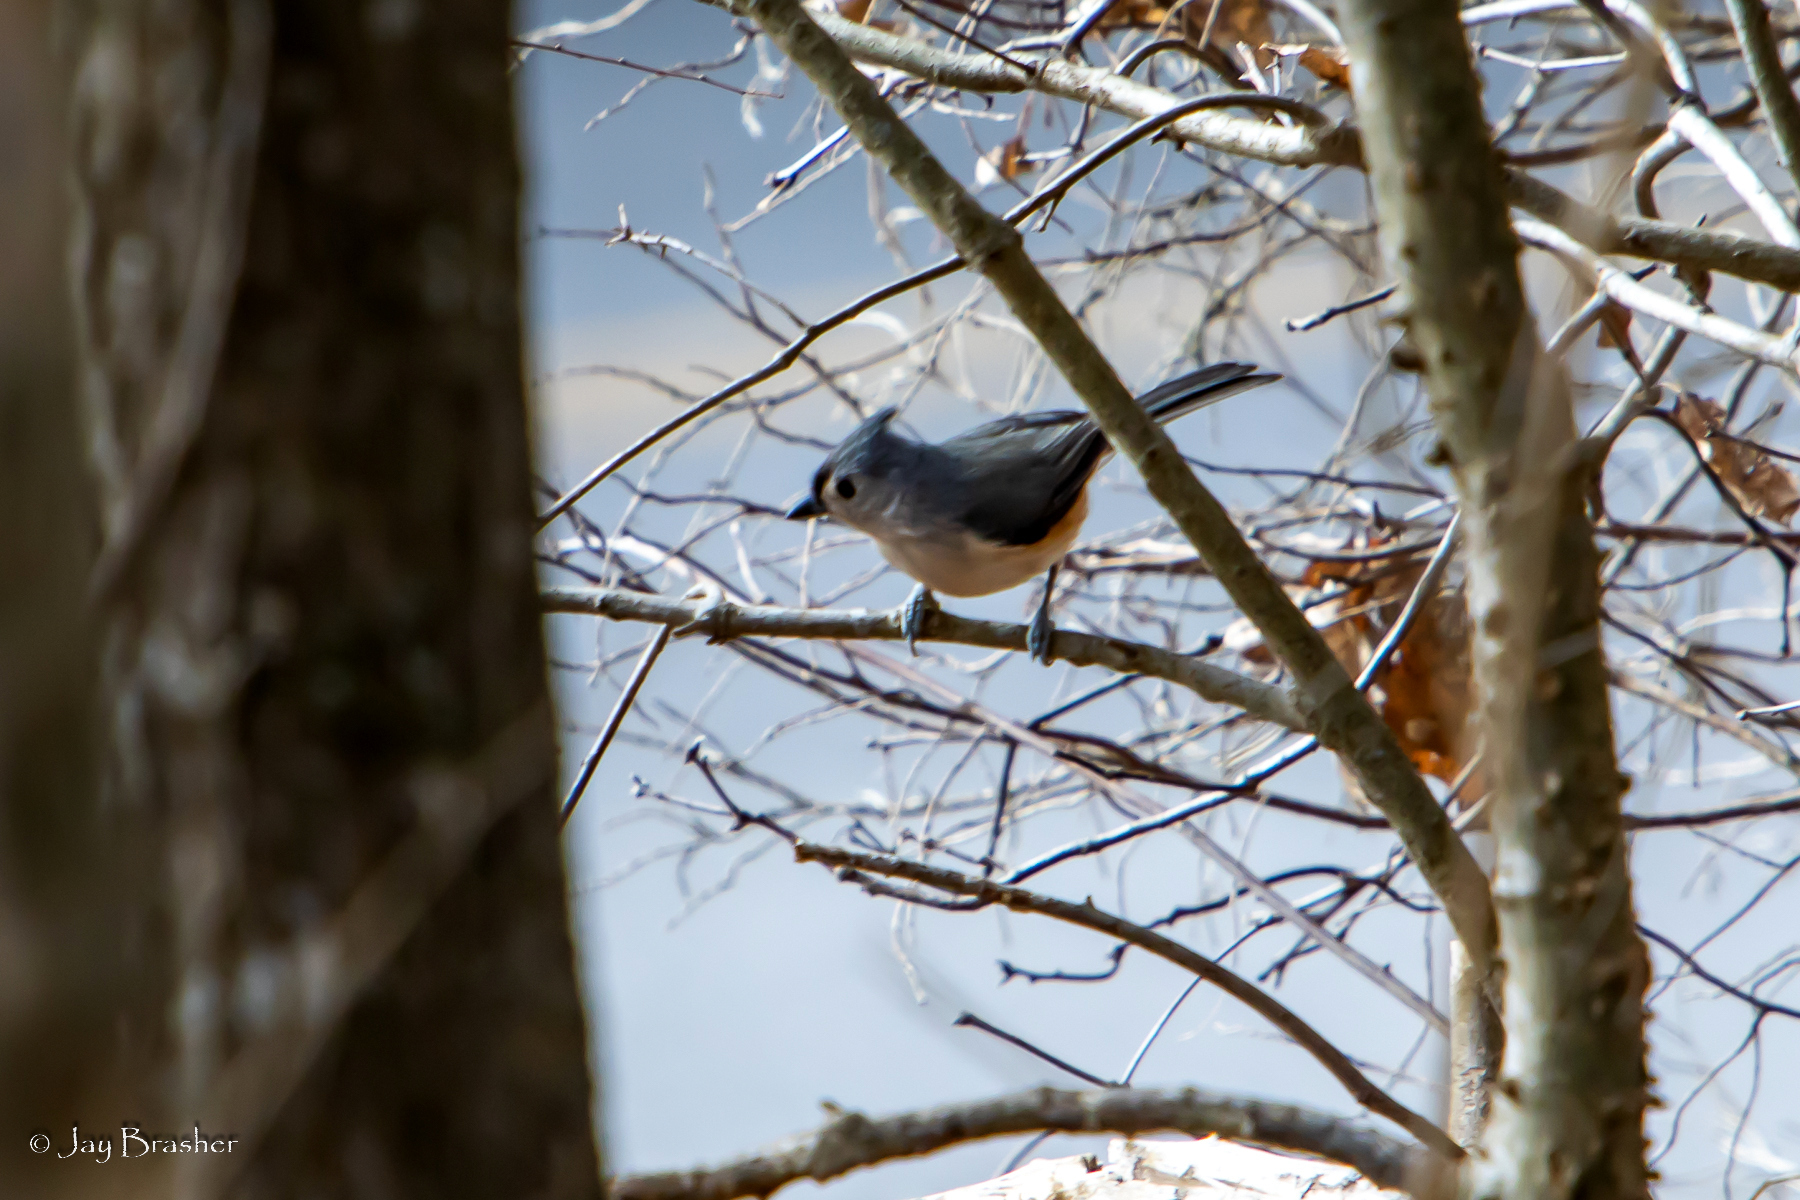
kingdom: Animalia
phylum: Chordata
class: Aves
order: Passeriformes
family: Paridae
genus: Baeolophus
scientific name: Baeolophus bicolor
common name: Tufted titmouse
